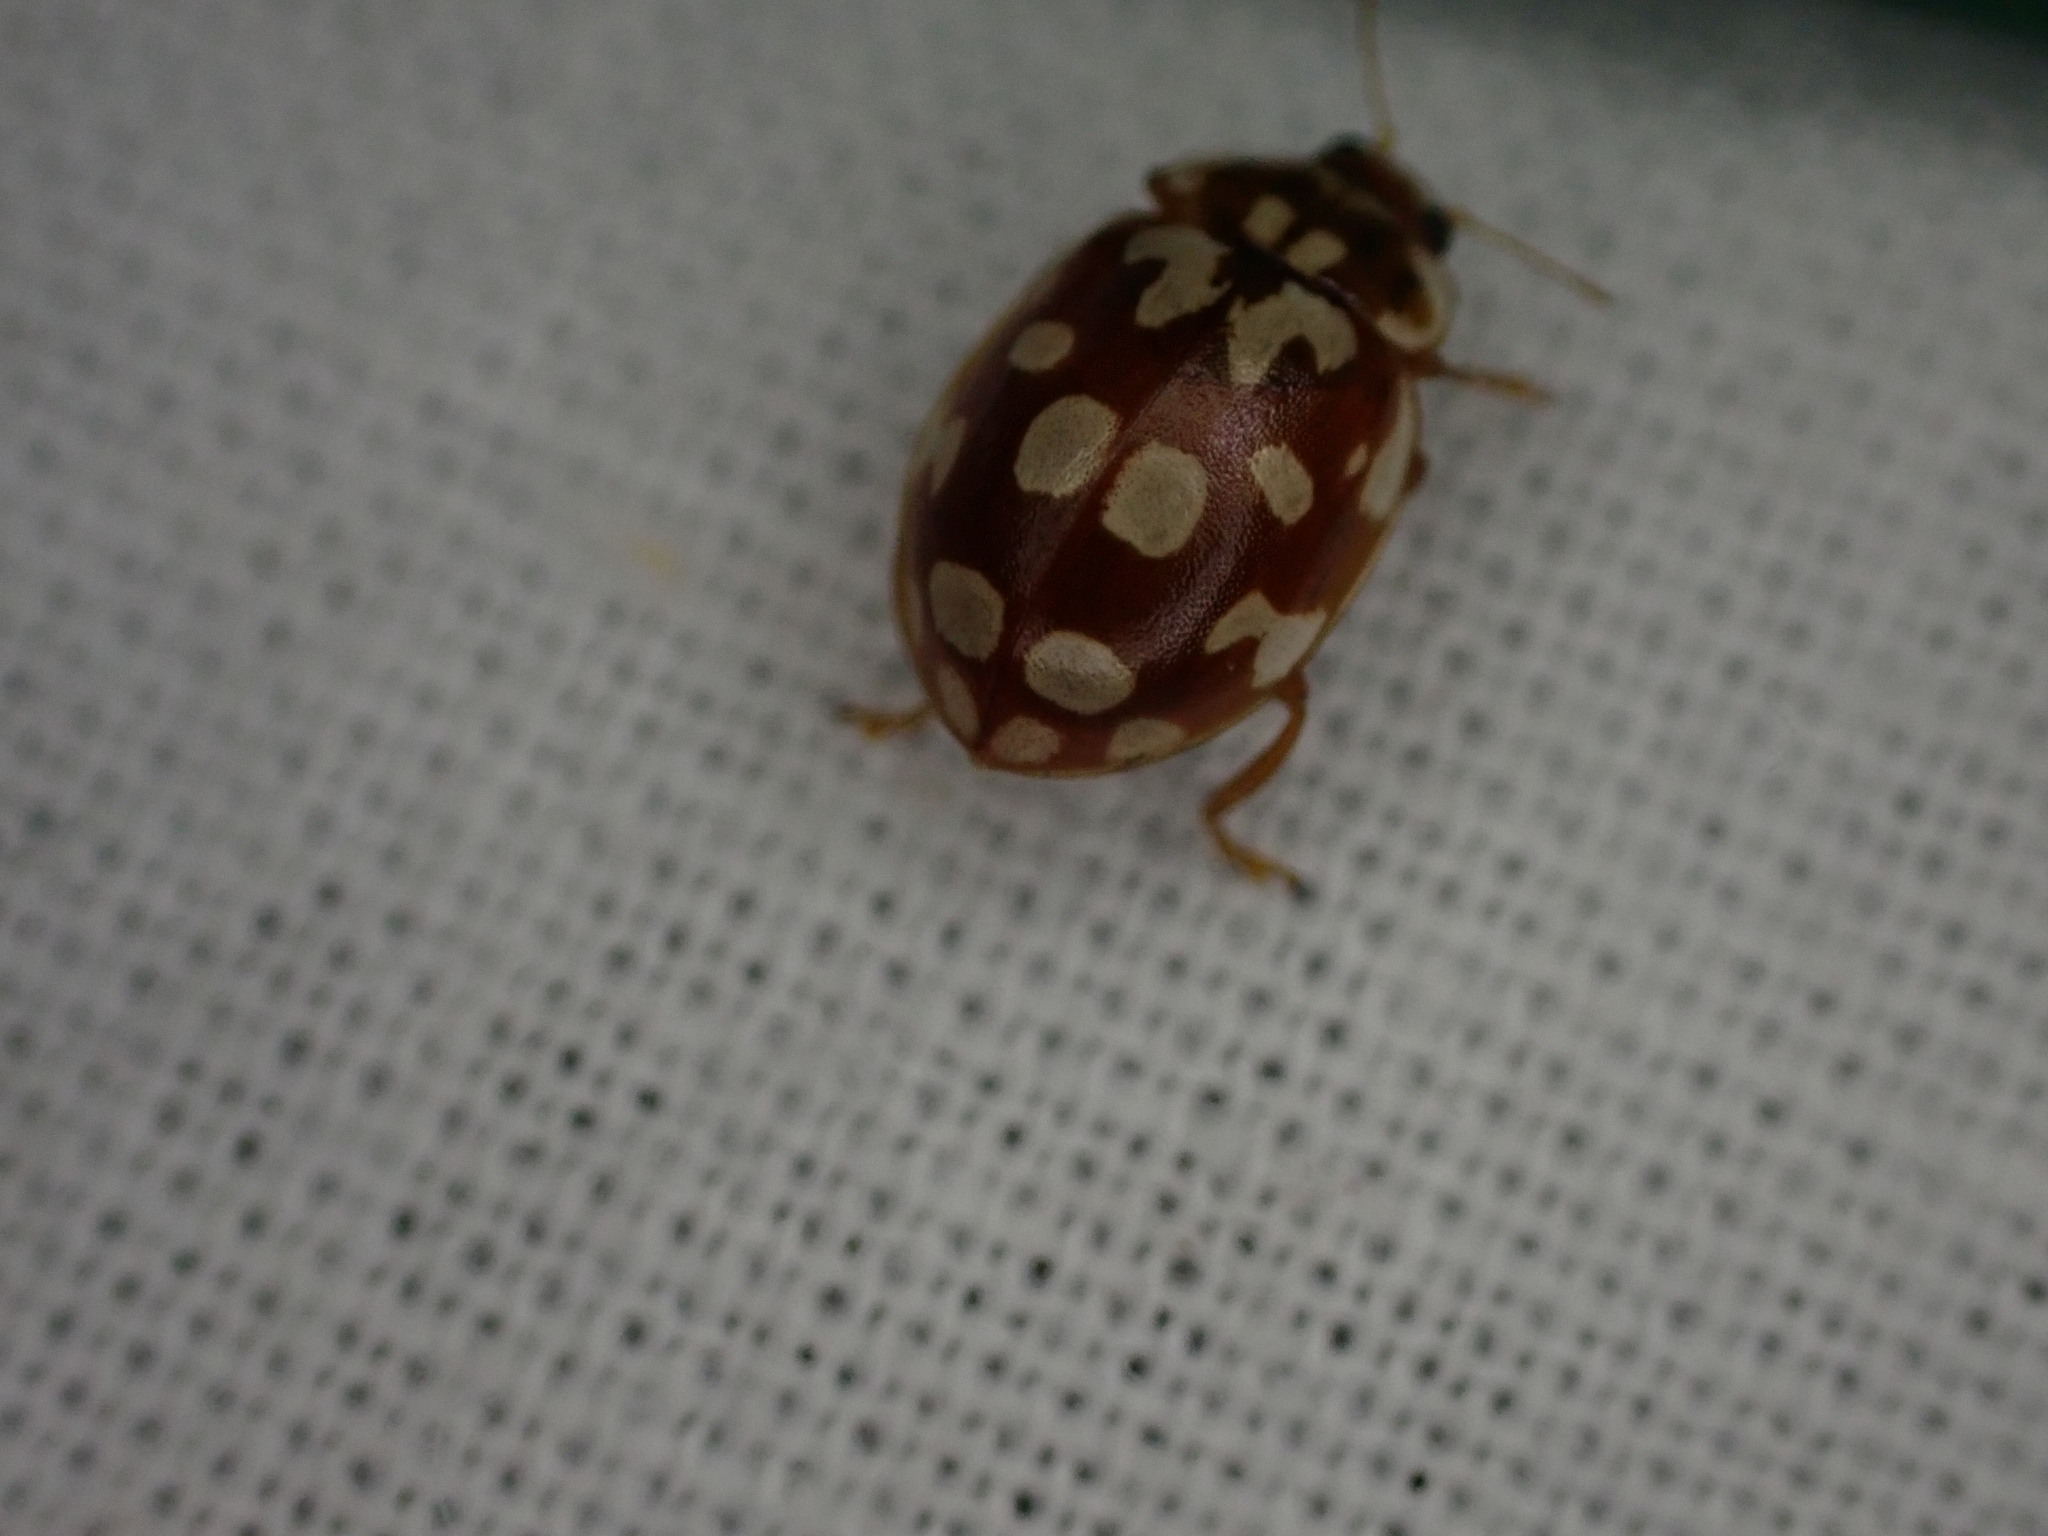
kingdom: Animalia
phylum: Arthropoda
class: Insecta
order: Coleoptera
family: Coccinellidae
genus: Myrrha
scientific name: Myrrha octodecimguttata
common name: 18-spot ladybird
